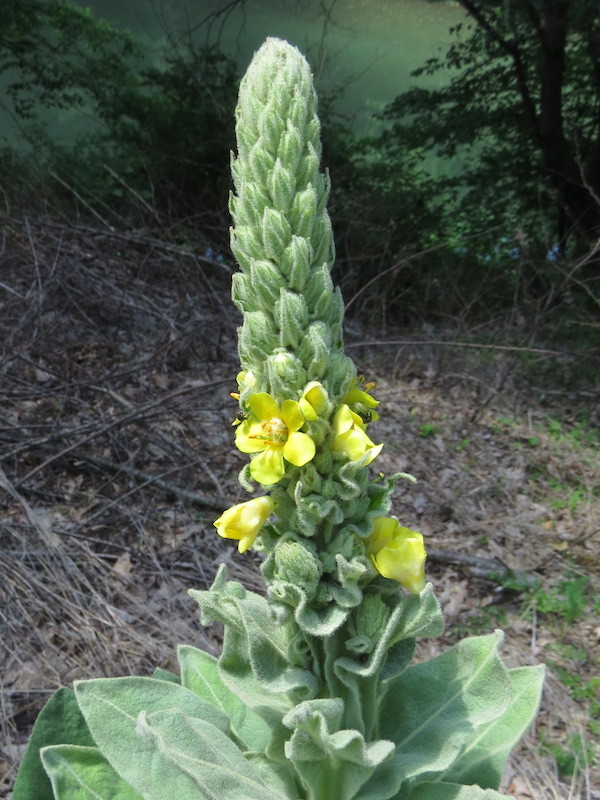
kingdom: Plantae
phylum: Tracheophyta
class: Magnoliopsida
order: Lamiales
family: Scrophulariaceae
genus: Verbascum
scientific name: Verbascum thapsus
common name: Common mullein
